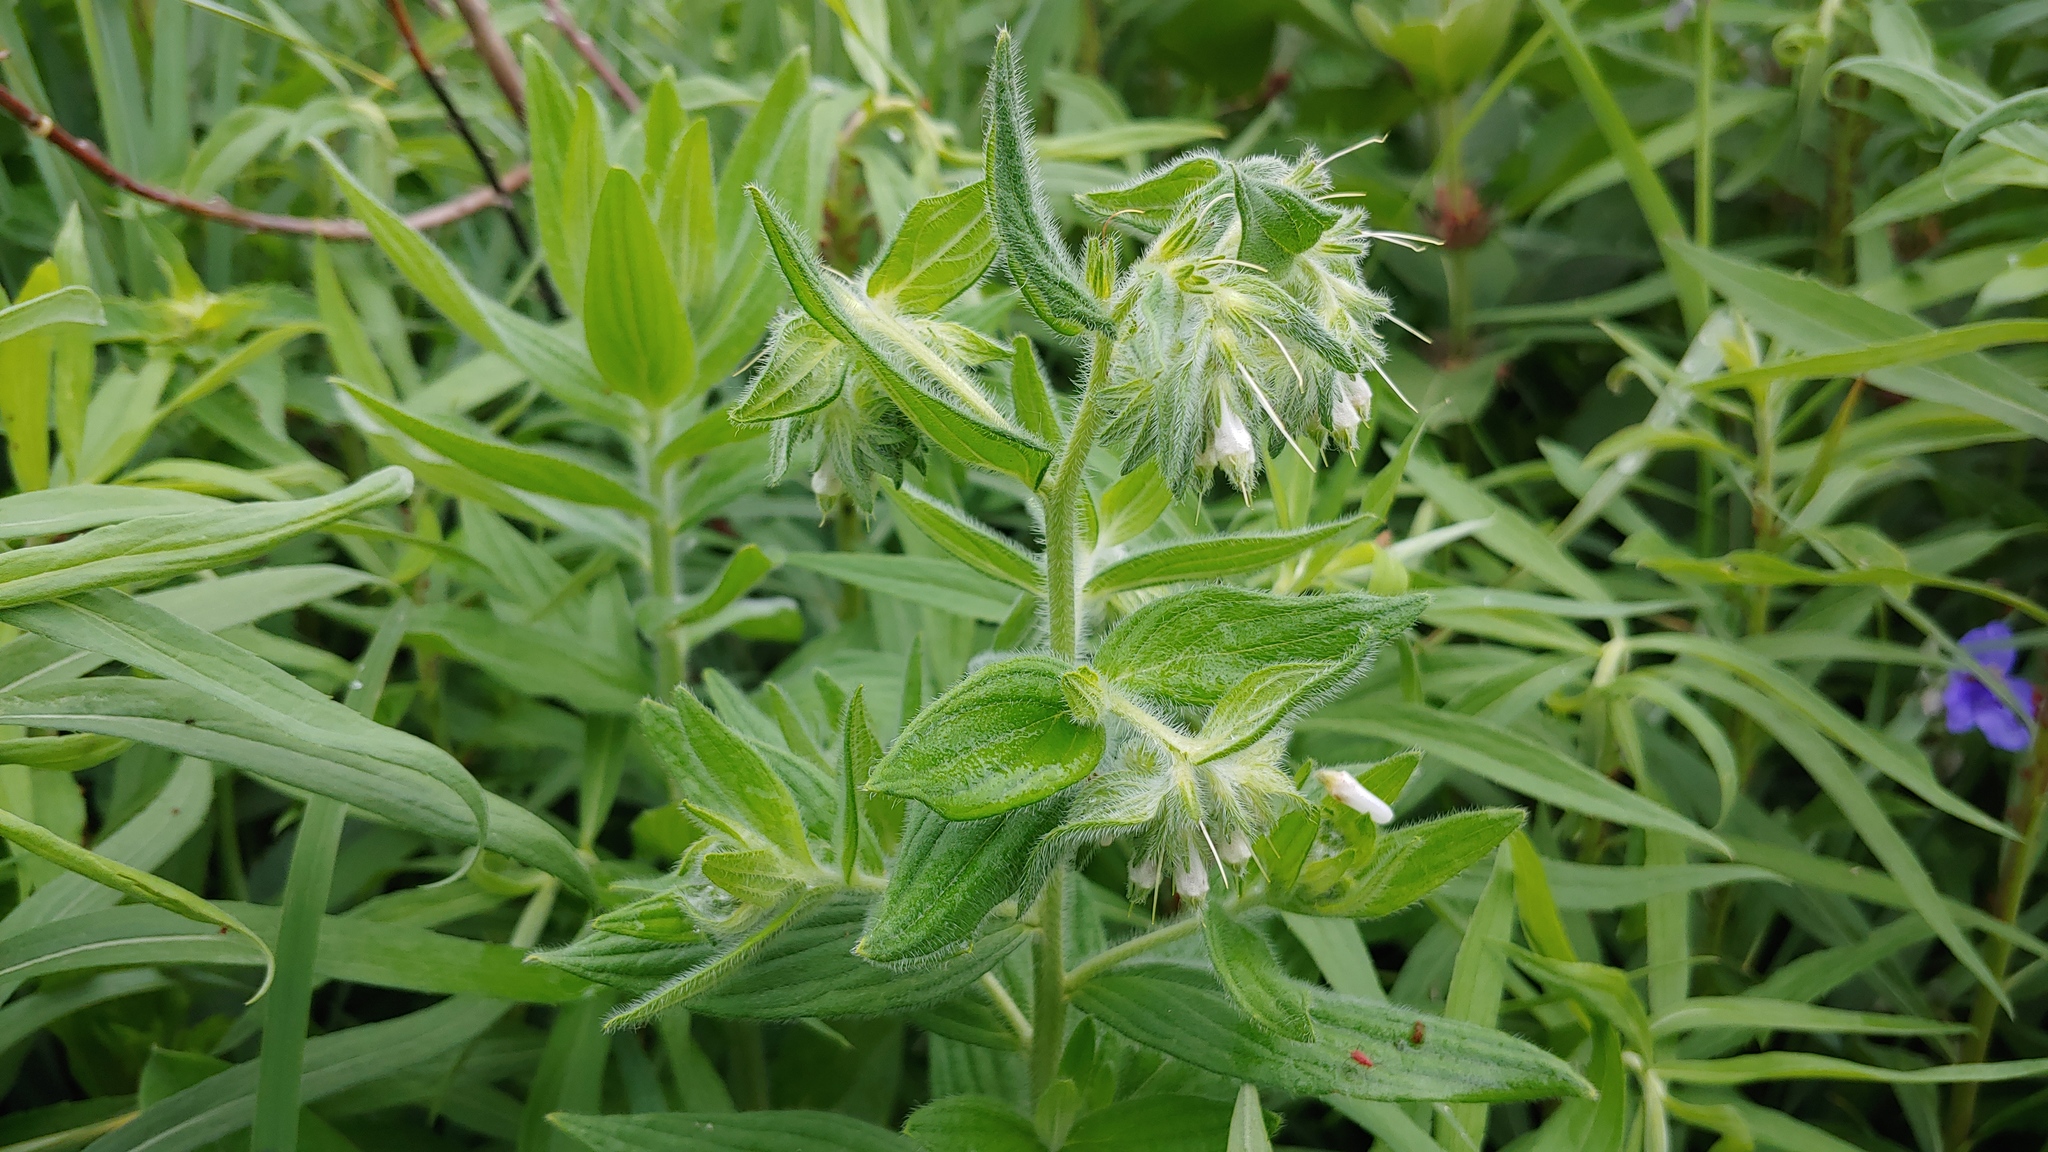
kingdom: Plantae
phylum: Tracheophyta
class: Magnoliopsida
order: Boraginales
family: Boraginaceae
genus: Lithospermum
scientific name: Lithospermum parviflorum
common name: Hairy false gromwell
